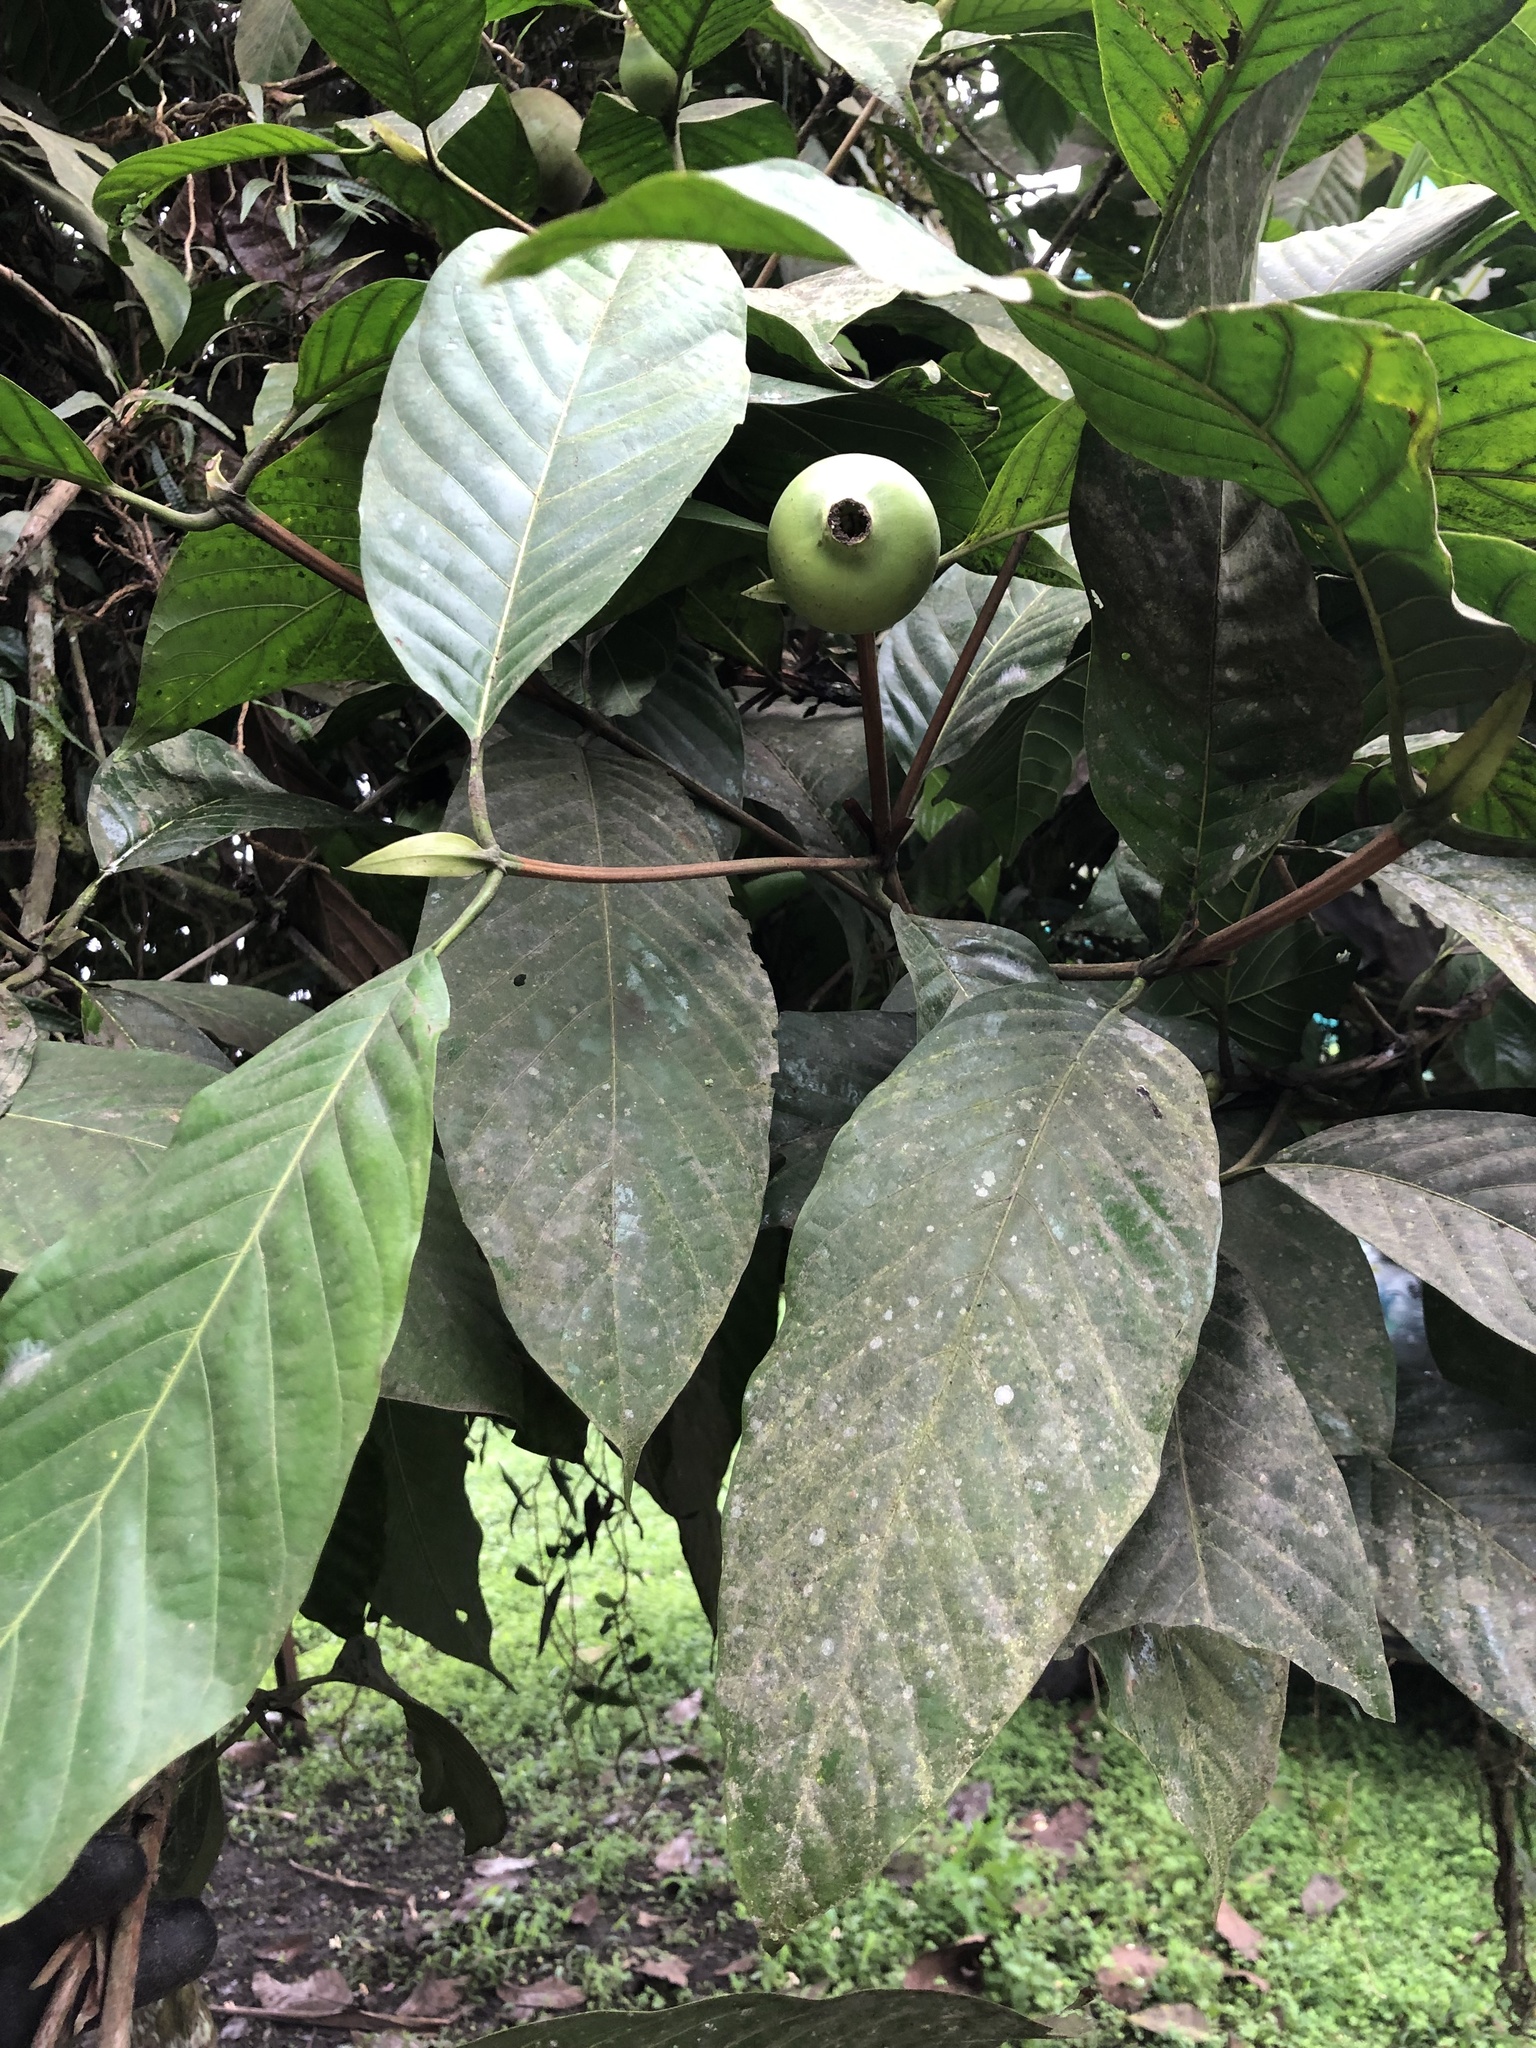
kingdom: Plantae
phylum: Tracheophyta
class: Magnoliopsida
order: Gentianales
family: Rubiaceae
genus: Alibertia
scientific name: Alibertia patinoi
